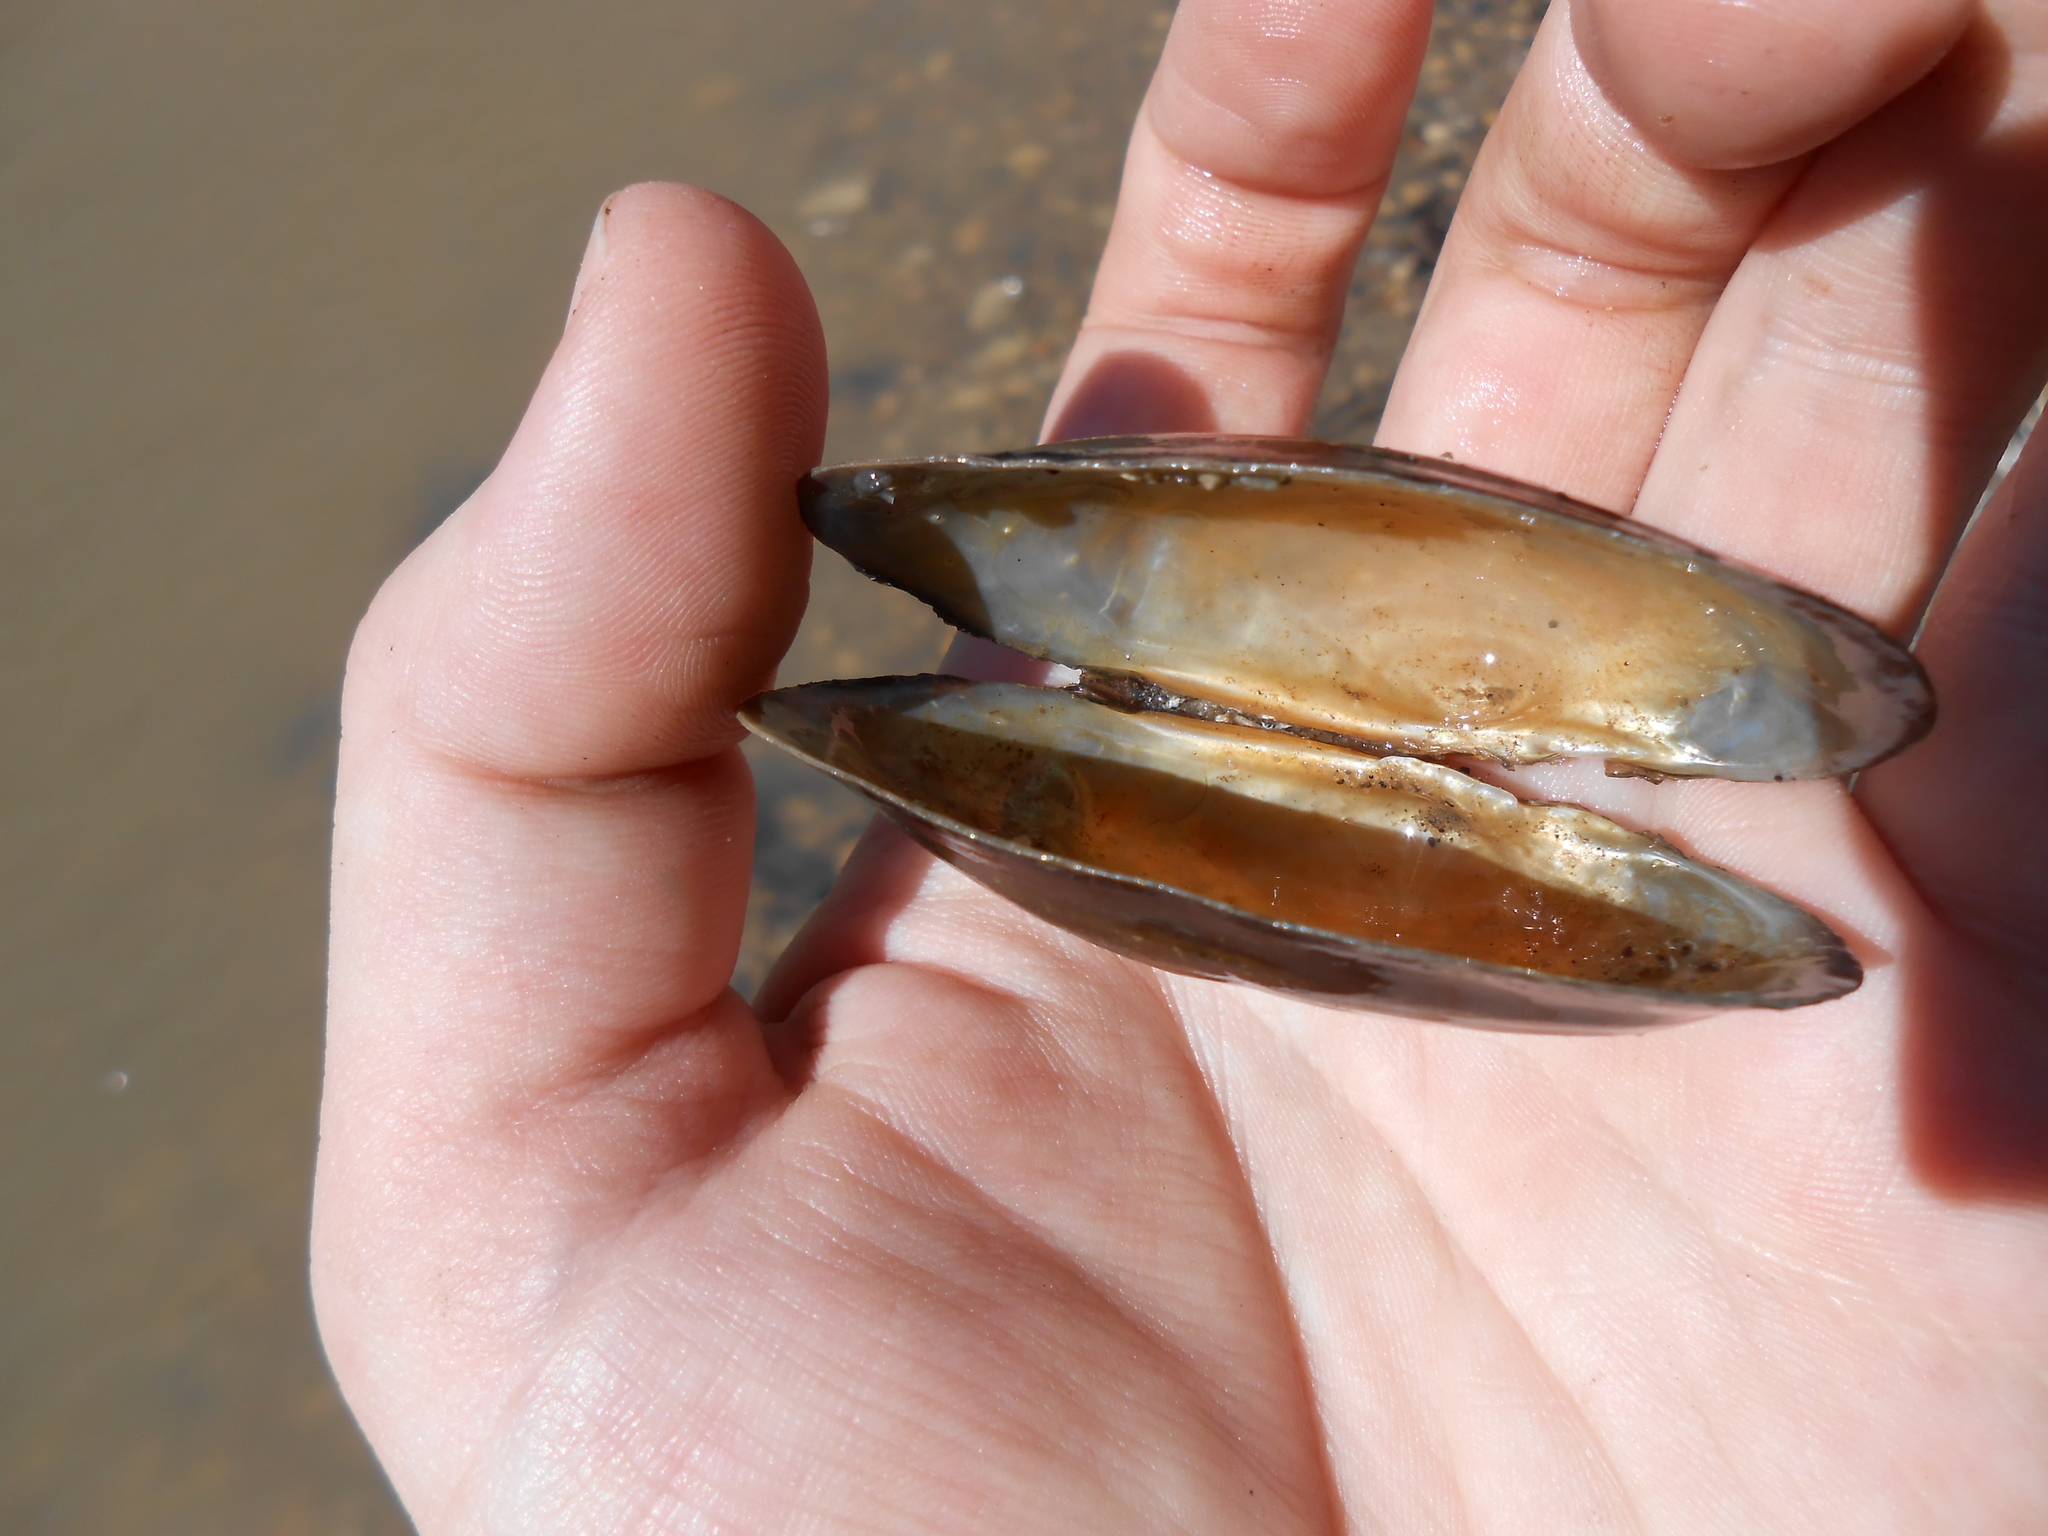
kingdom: Animalia
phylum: Mollusca
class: Bivalvia
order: Unionida
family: Unionidae
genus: Strophitus
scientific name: Strophitus undulatus
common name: Creeper
